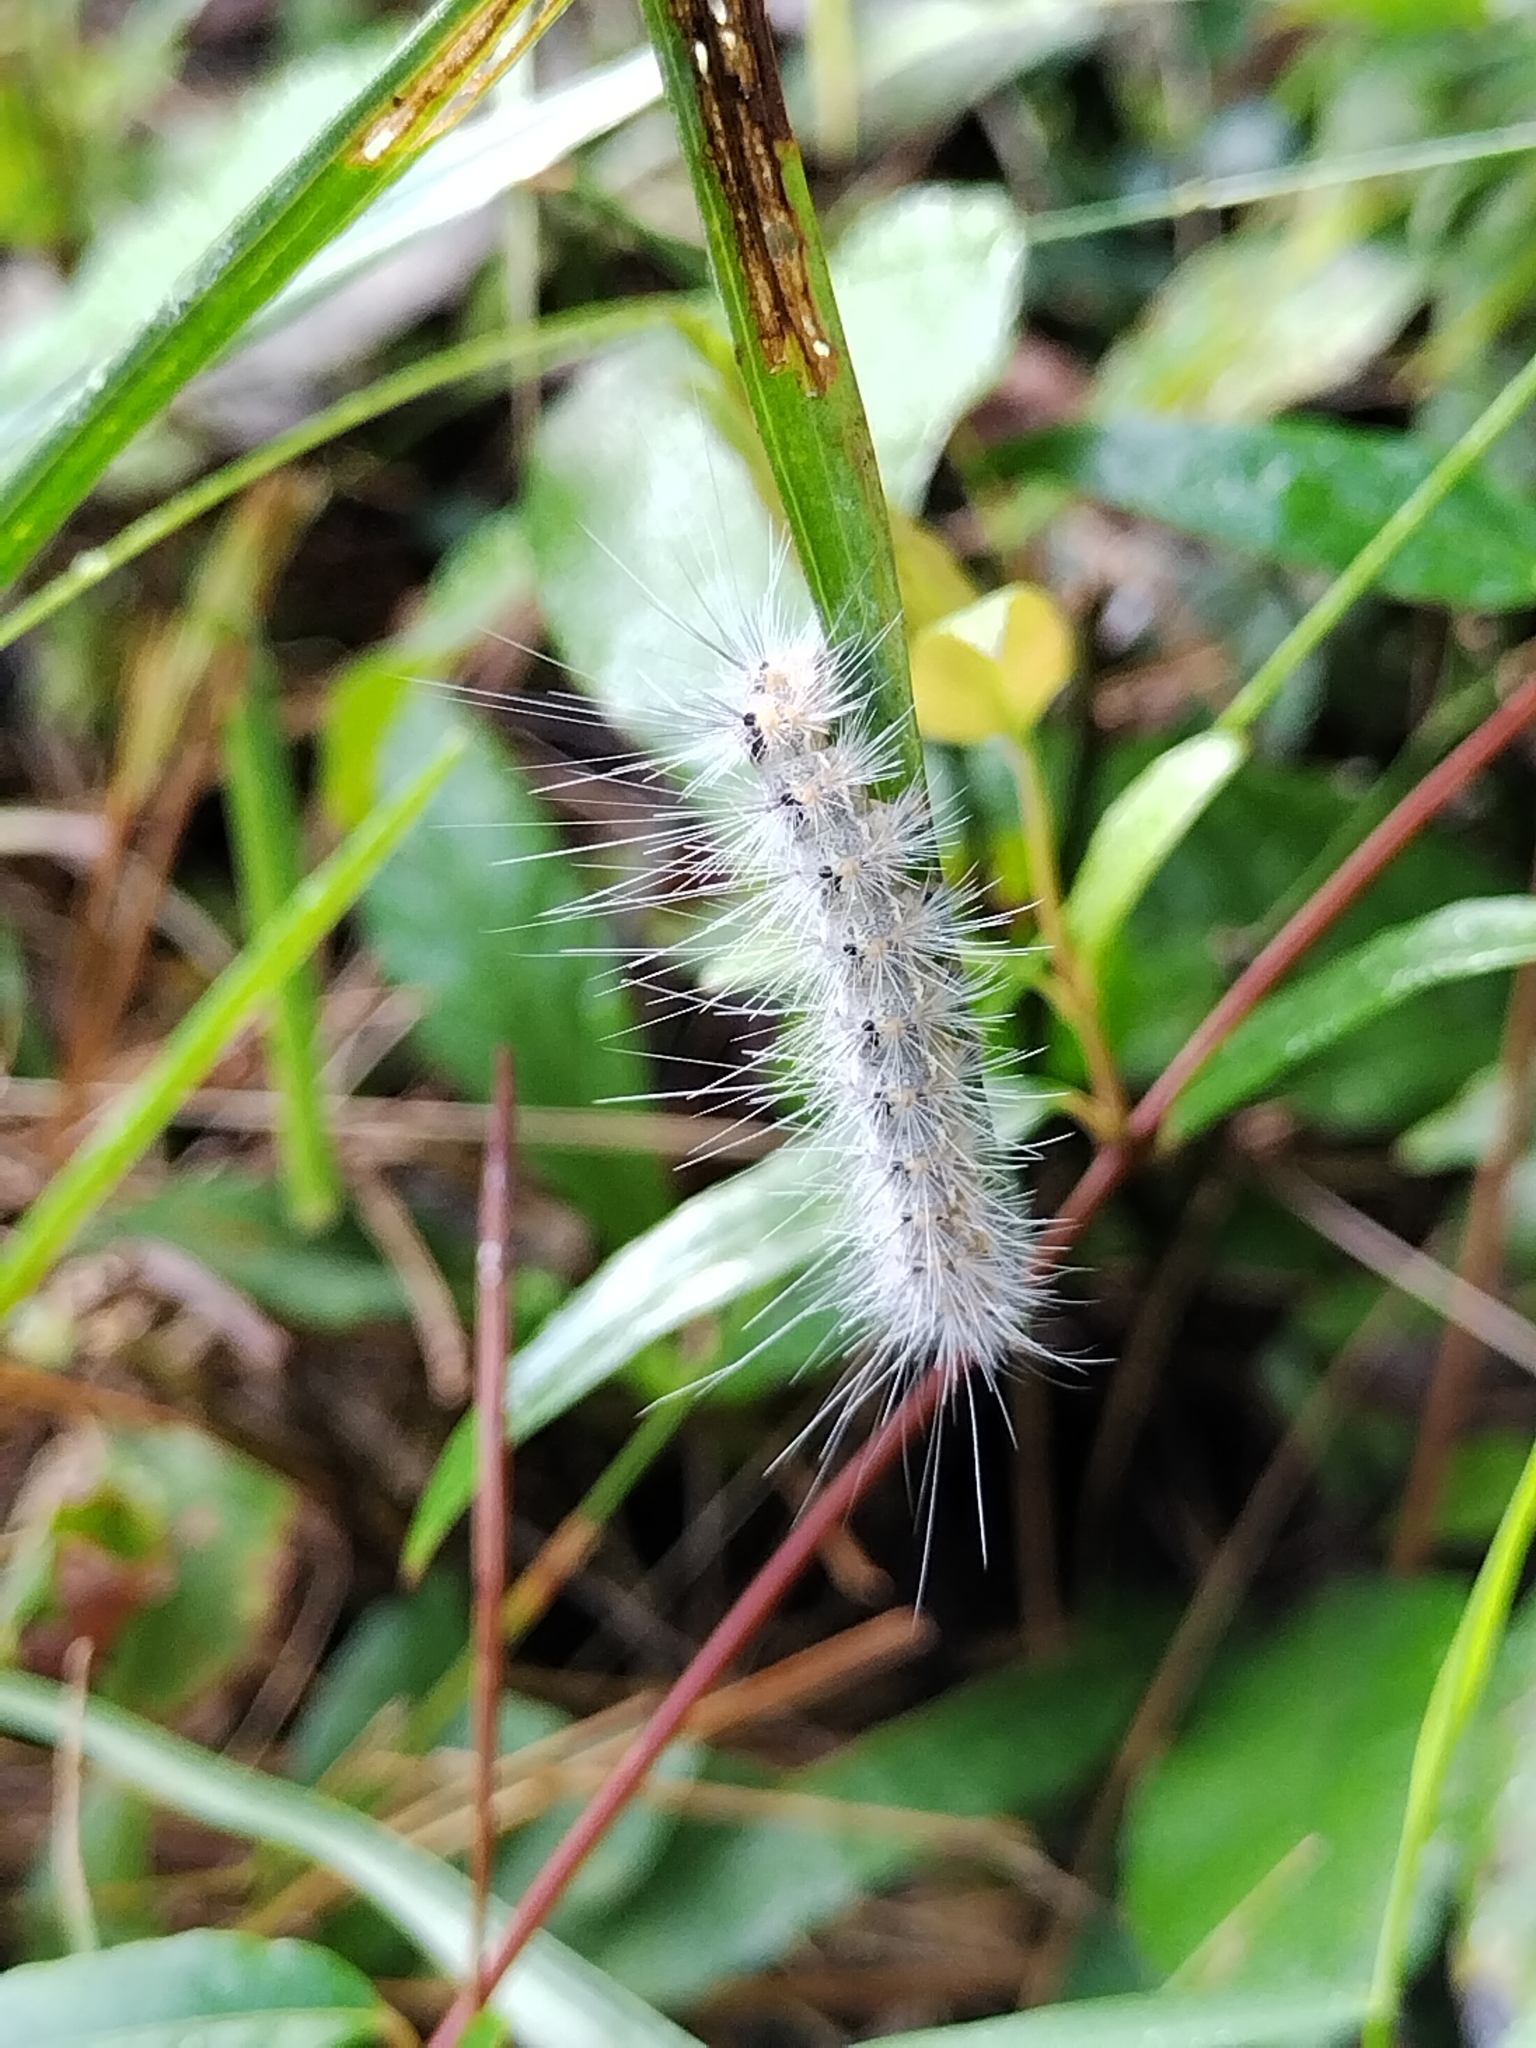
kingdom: Animalia
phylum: Arthropoda
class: Insecta
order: Lepidoptera
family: Erebidae
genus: Hyphantria
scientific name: Hyphantria cunea
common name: American white moth
